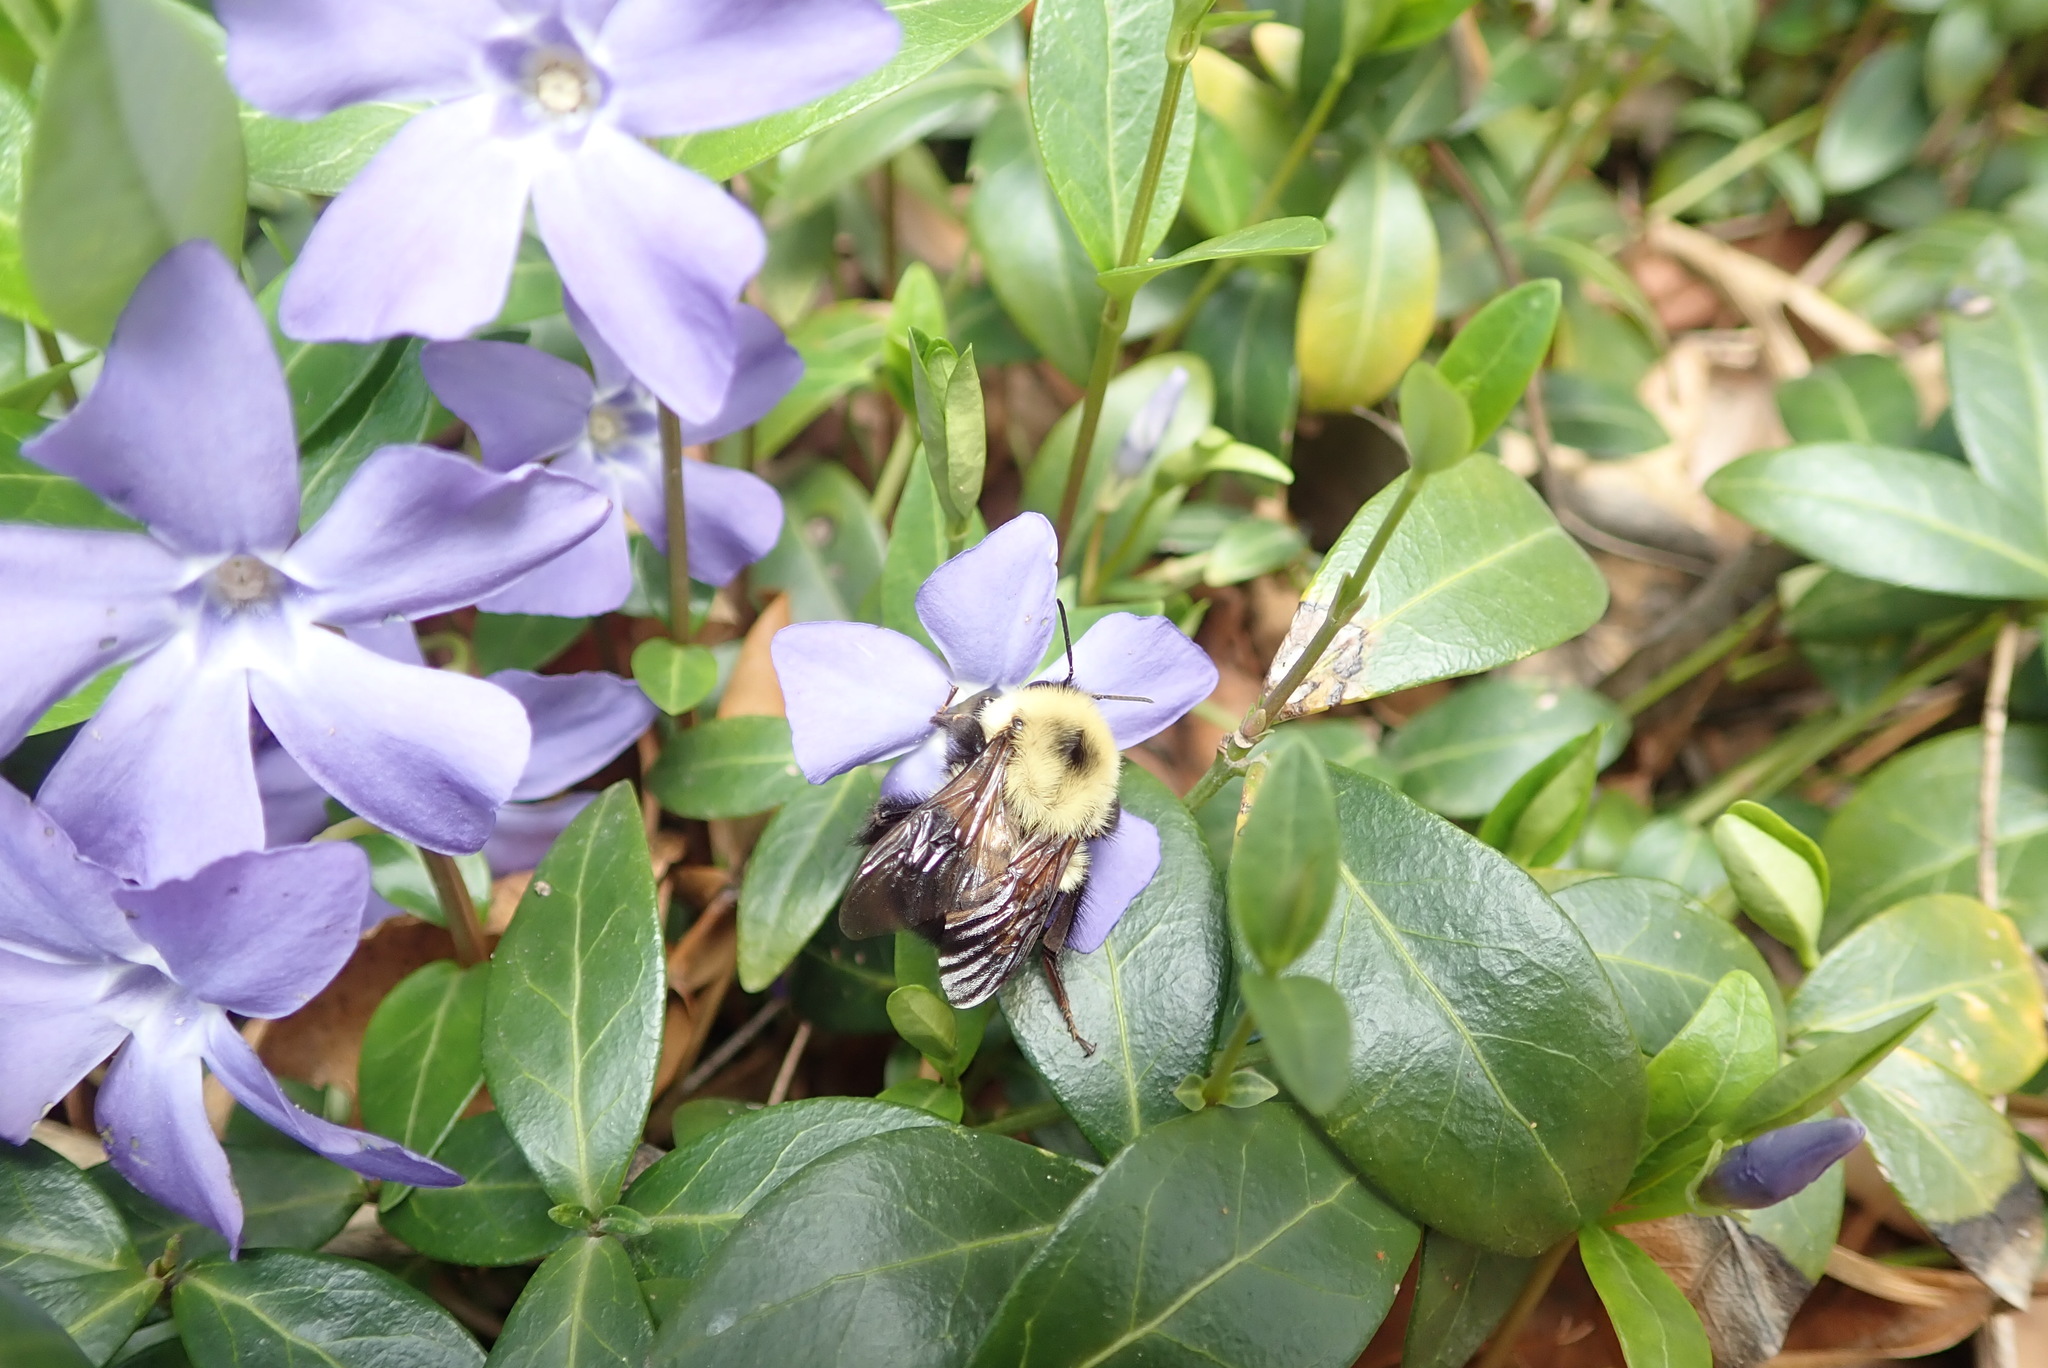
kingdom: Animalia
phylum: Arthropoda
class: Insecta
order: Hymenoptera
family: Apidae
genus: Bombus
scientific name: Bombus bimaculatus
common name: Two-spotted bumble bee
